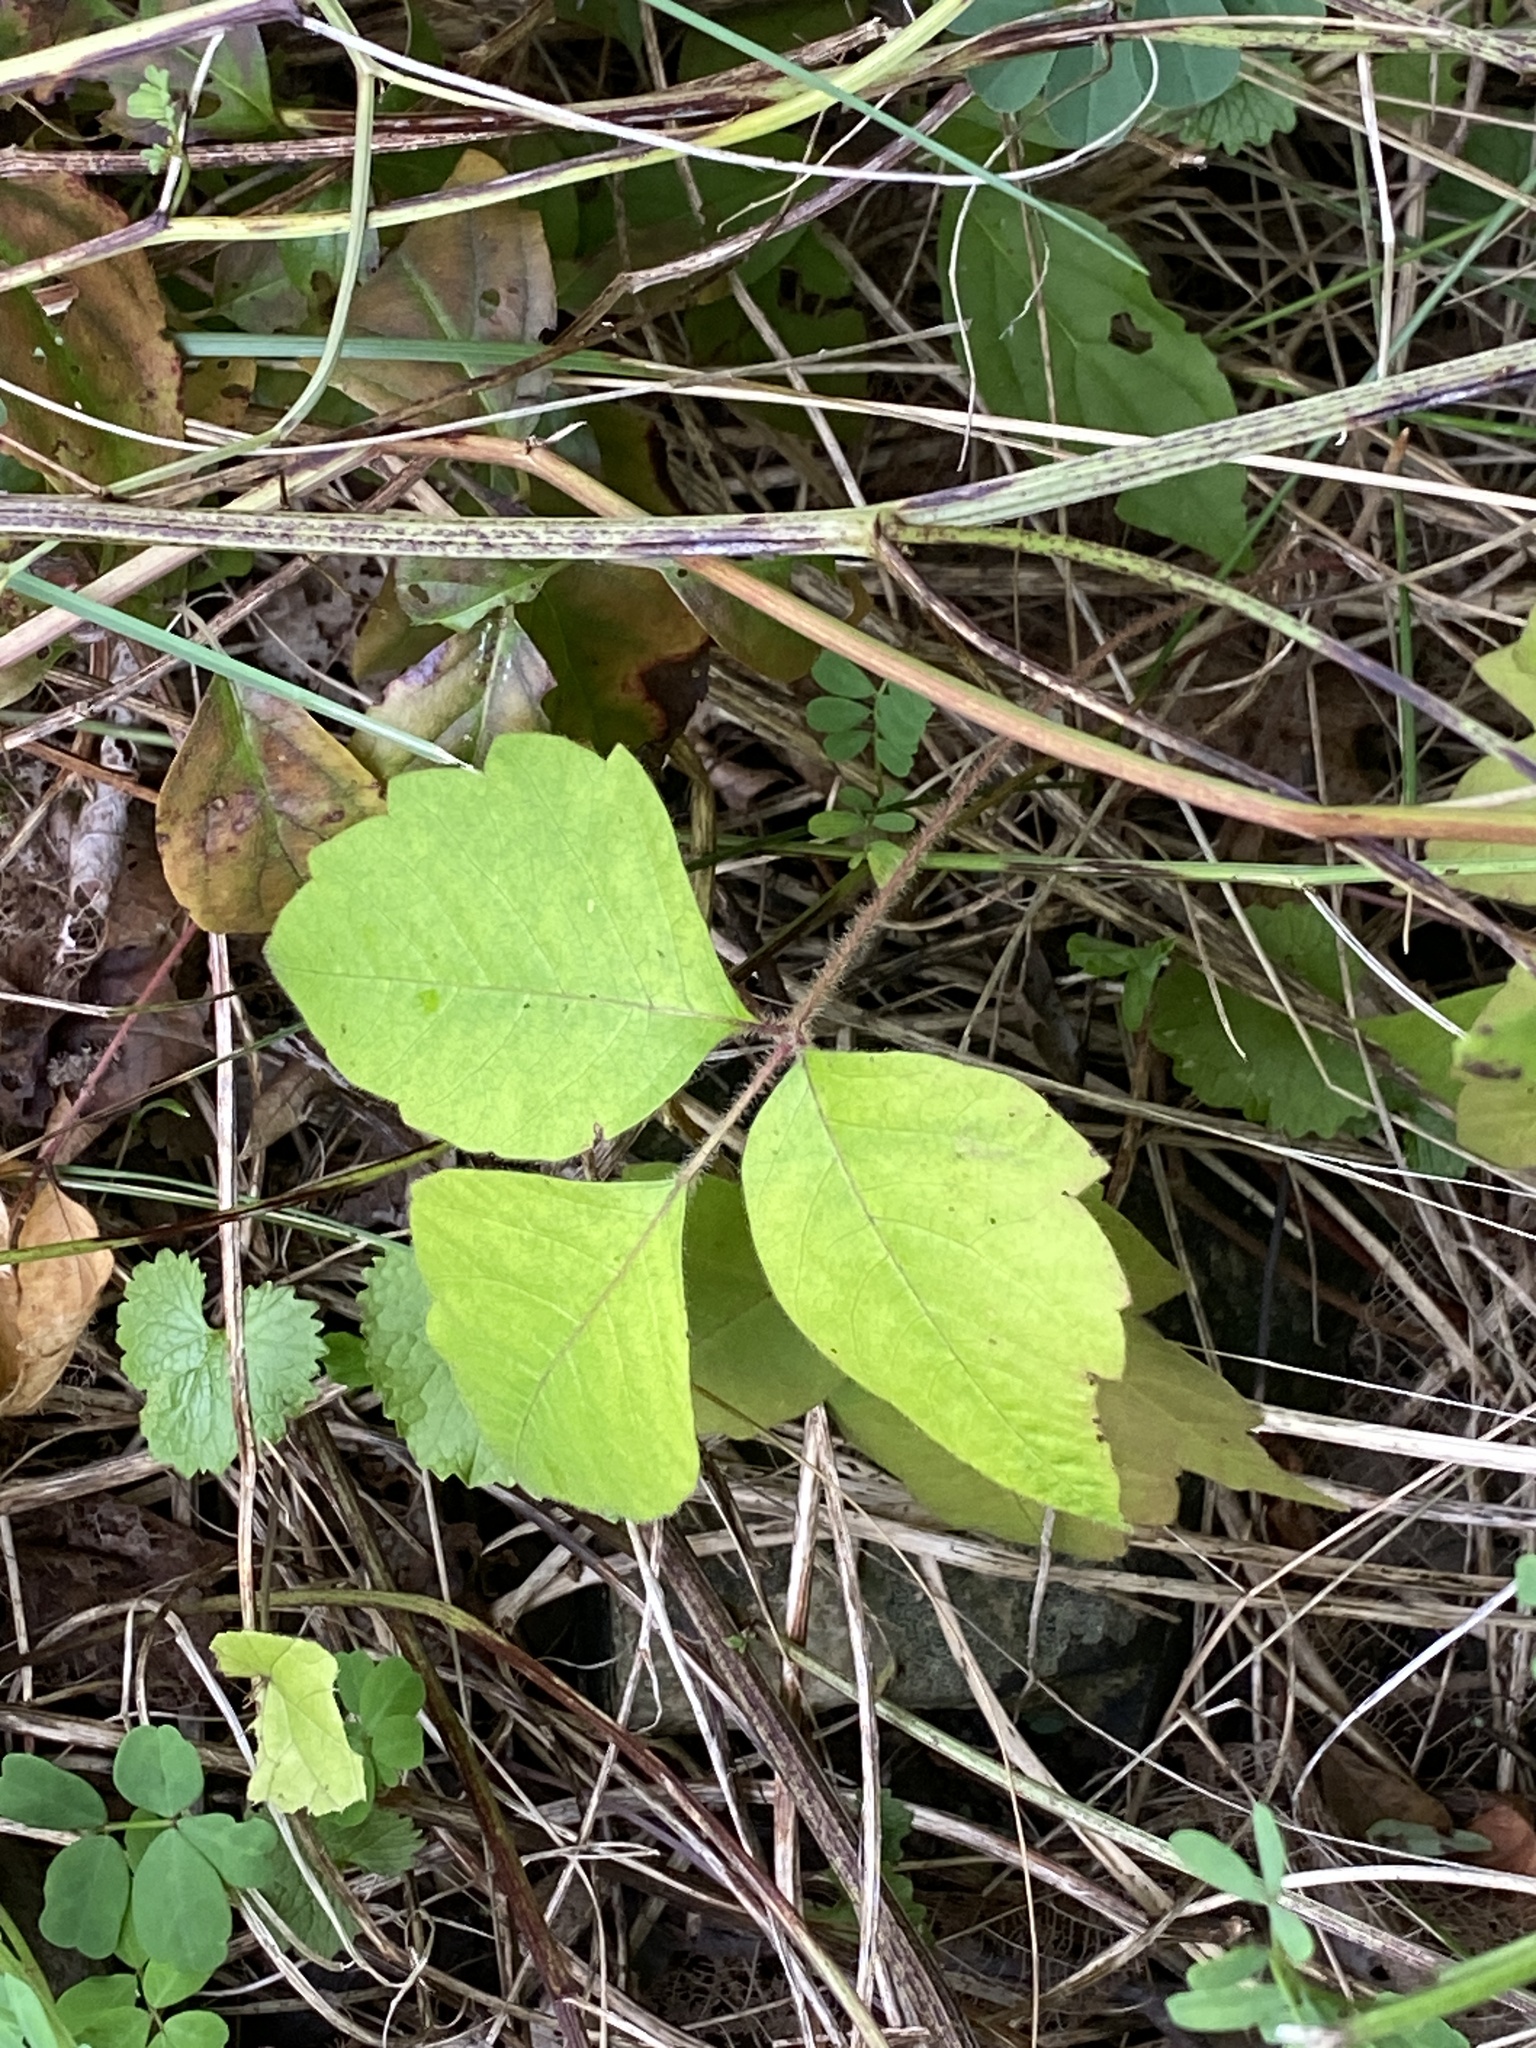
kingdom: Plantae
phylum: Tracheophyta
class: Magnoliopsida
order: Sapindales
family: Anacardiaceae
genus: Toxicodendron
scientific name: Toxicodendron radicans
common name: Poison ivy
